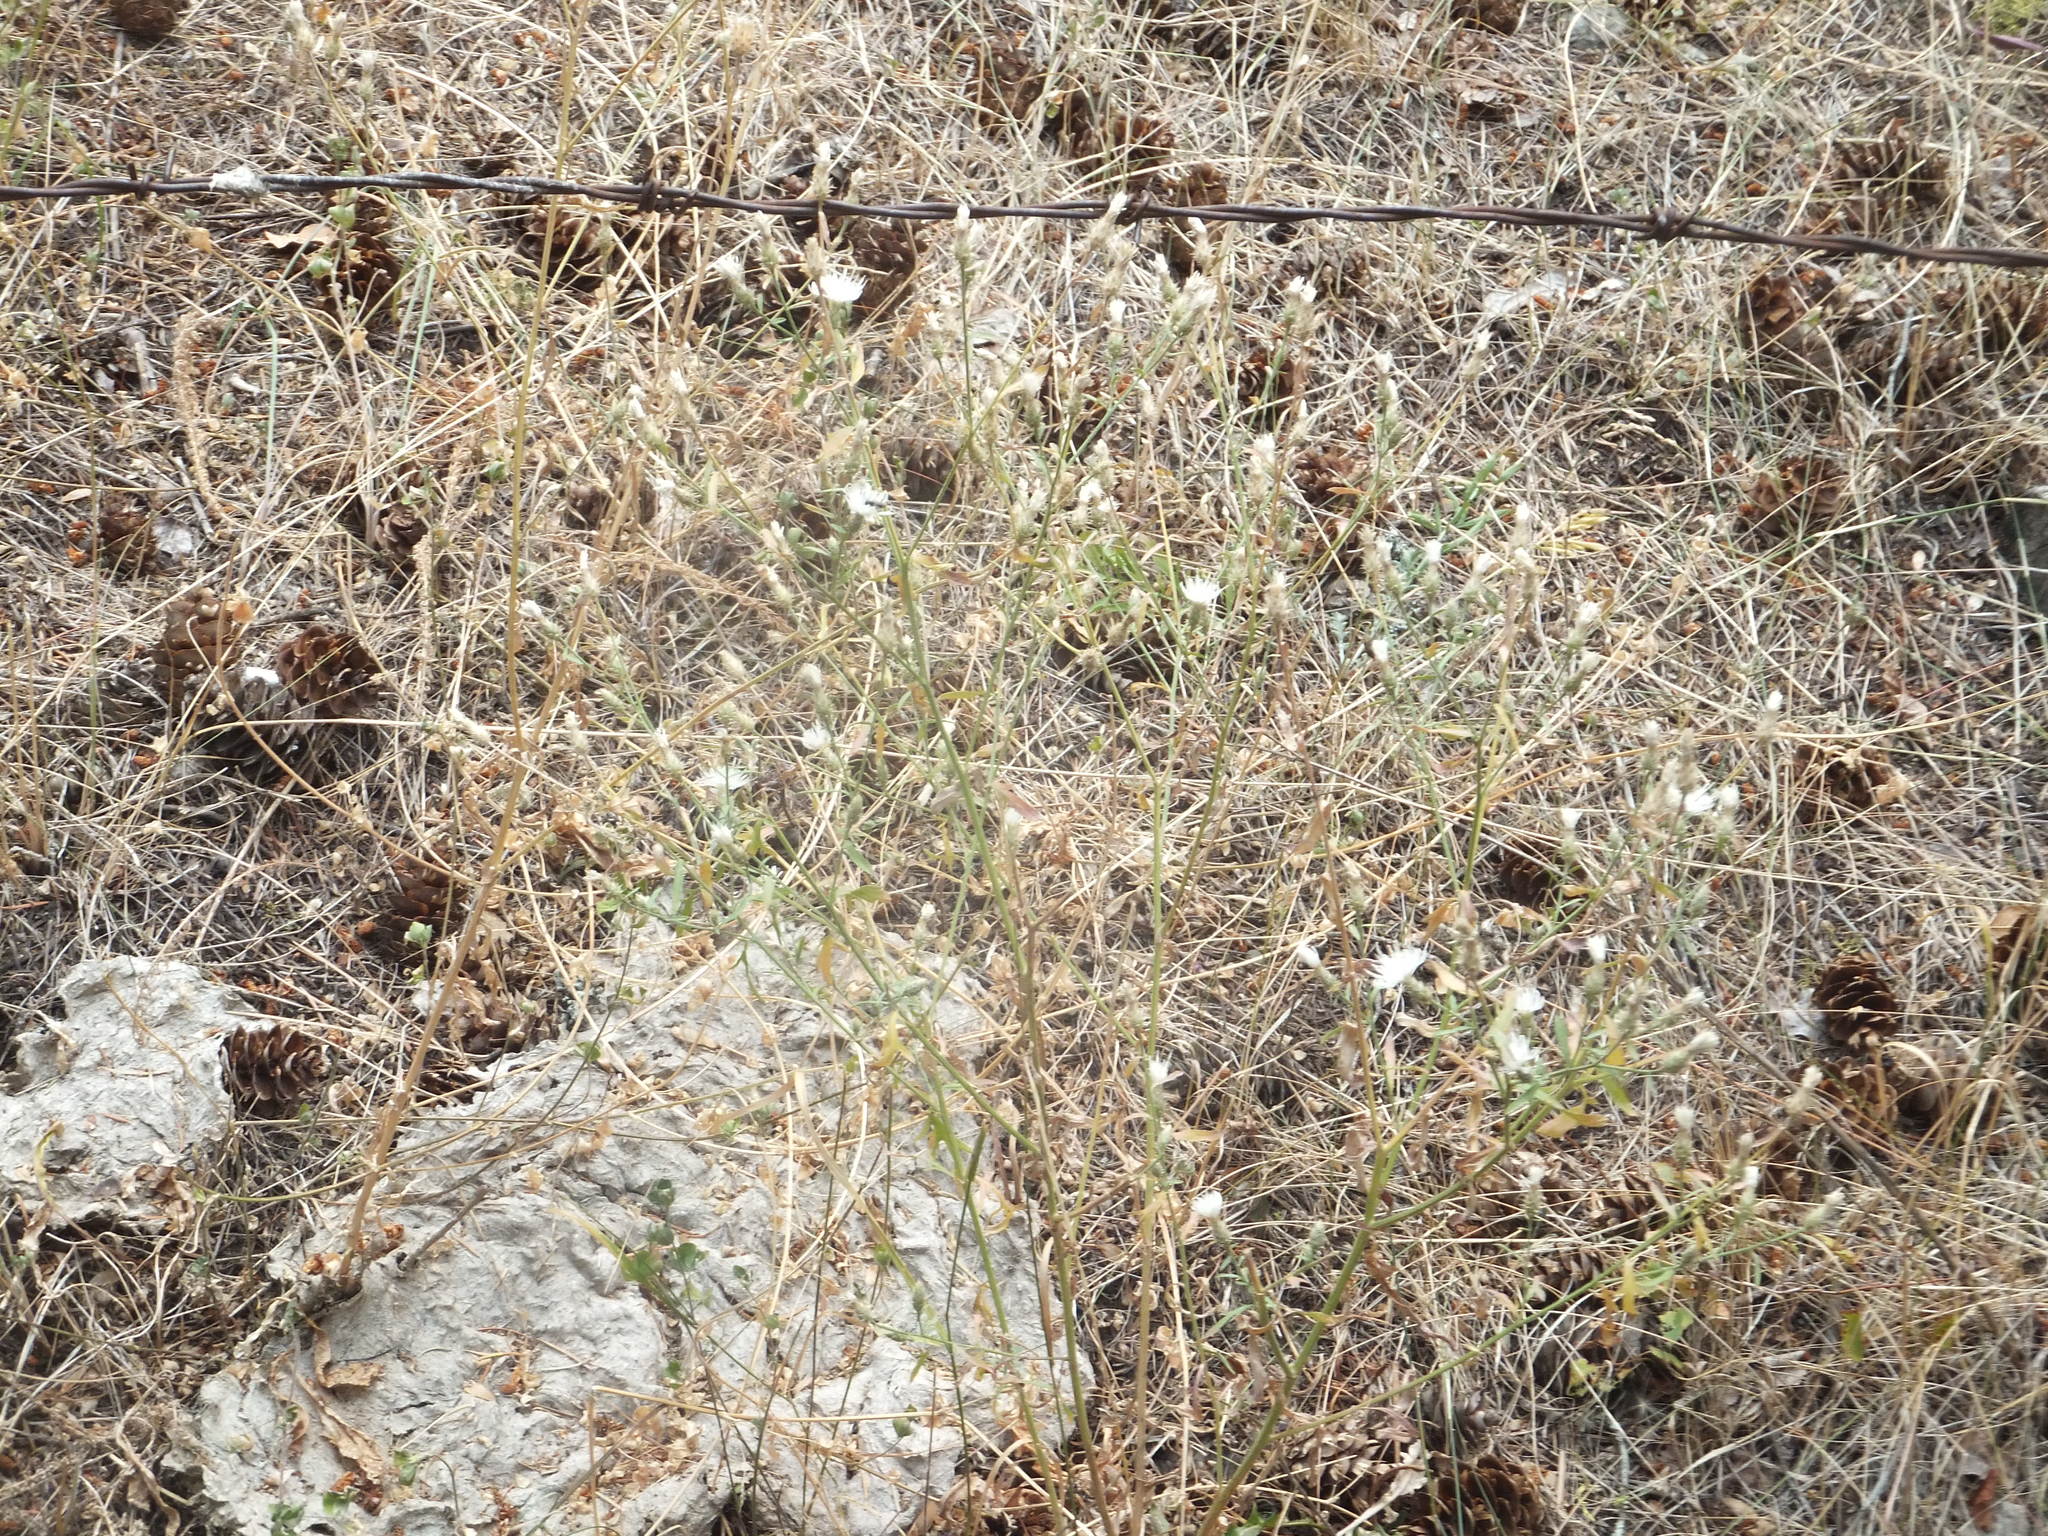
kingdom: Plantae
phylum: Tracheophyta
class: Magnoliopsida
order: Asterales
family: Asteraceae
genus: Centaurea
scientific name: Centaurea diffusa
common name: Diffuse knapweed
